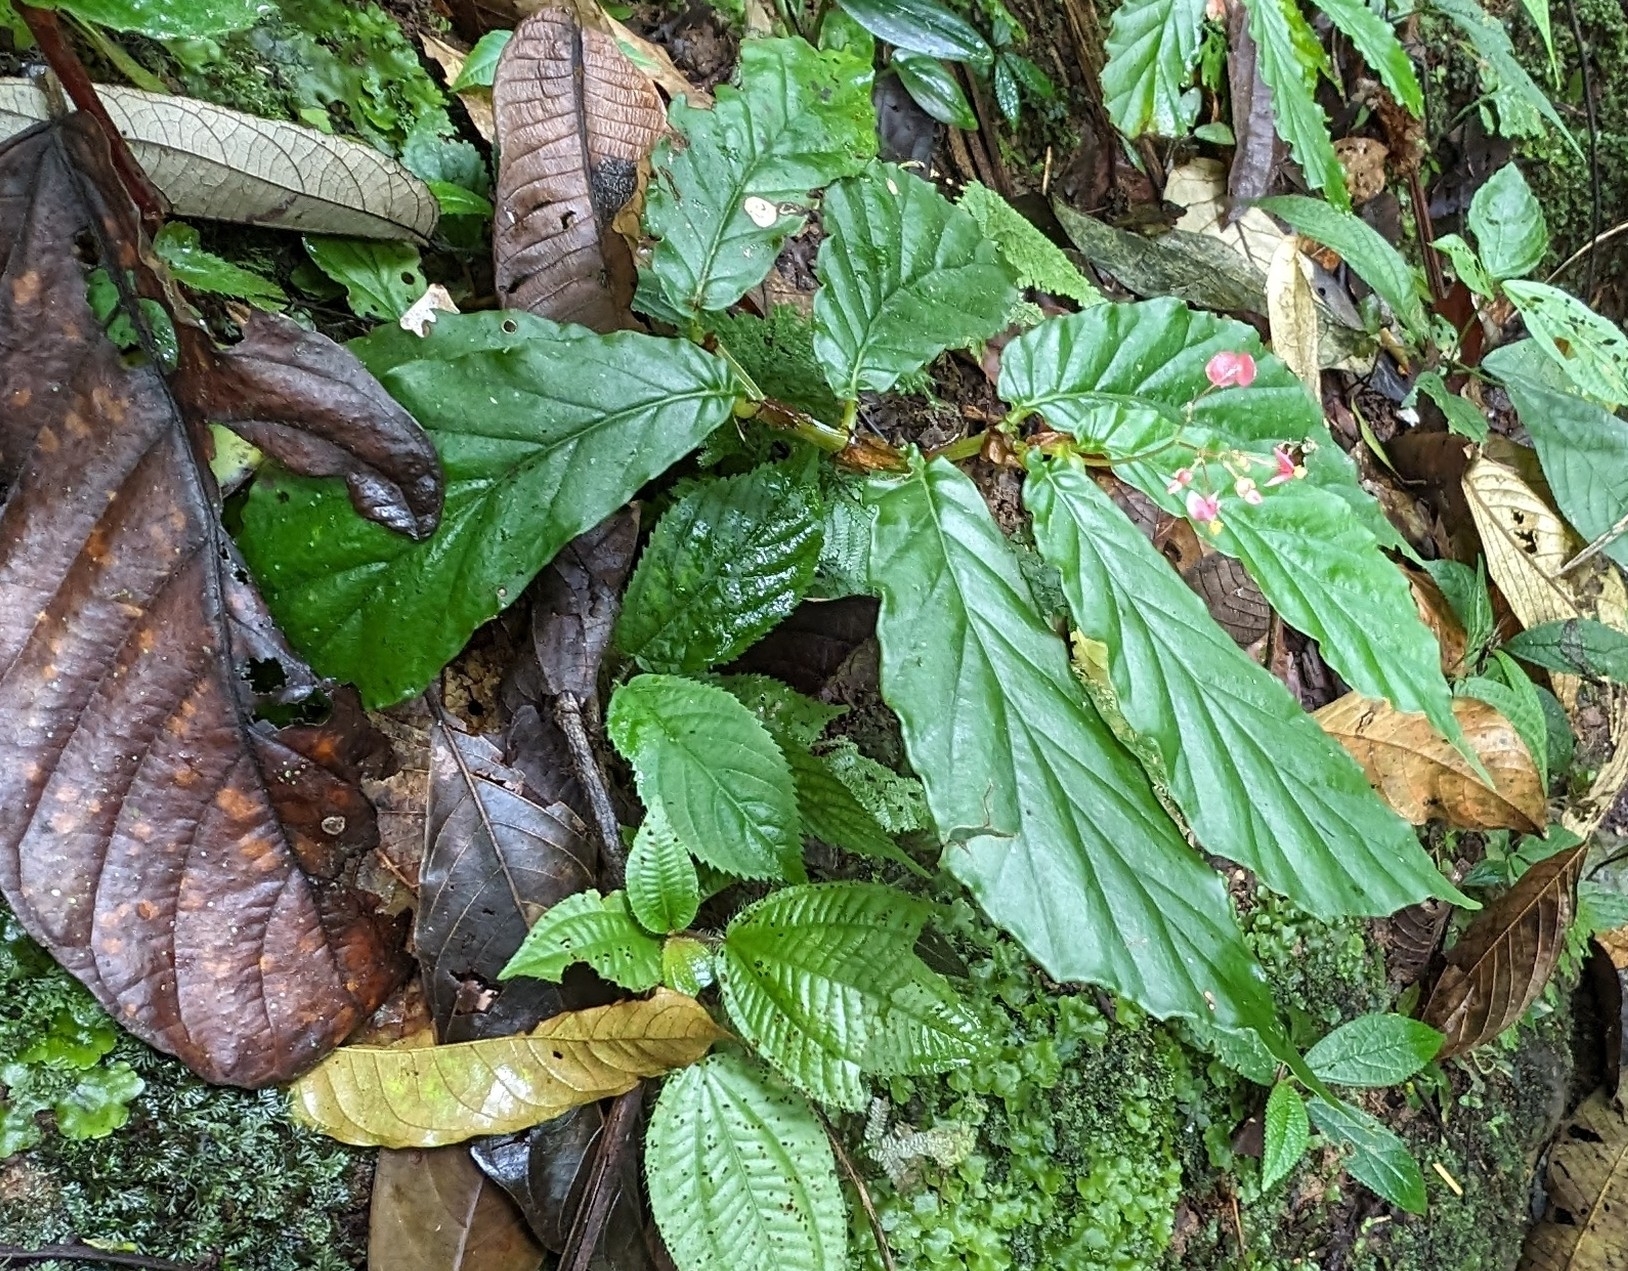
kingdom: Plantae
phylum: Tracheophyta
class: Magnoliopsida
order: Cucurbitales
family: Begoniaceae
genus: Begonia
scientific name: Begonia tonduzii
